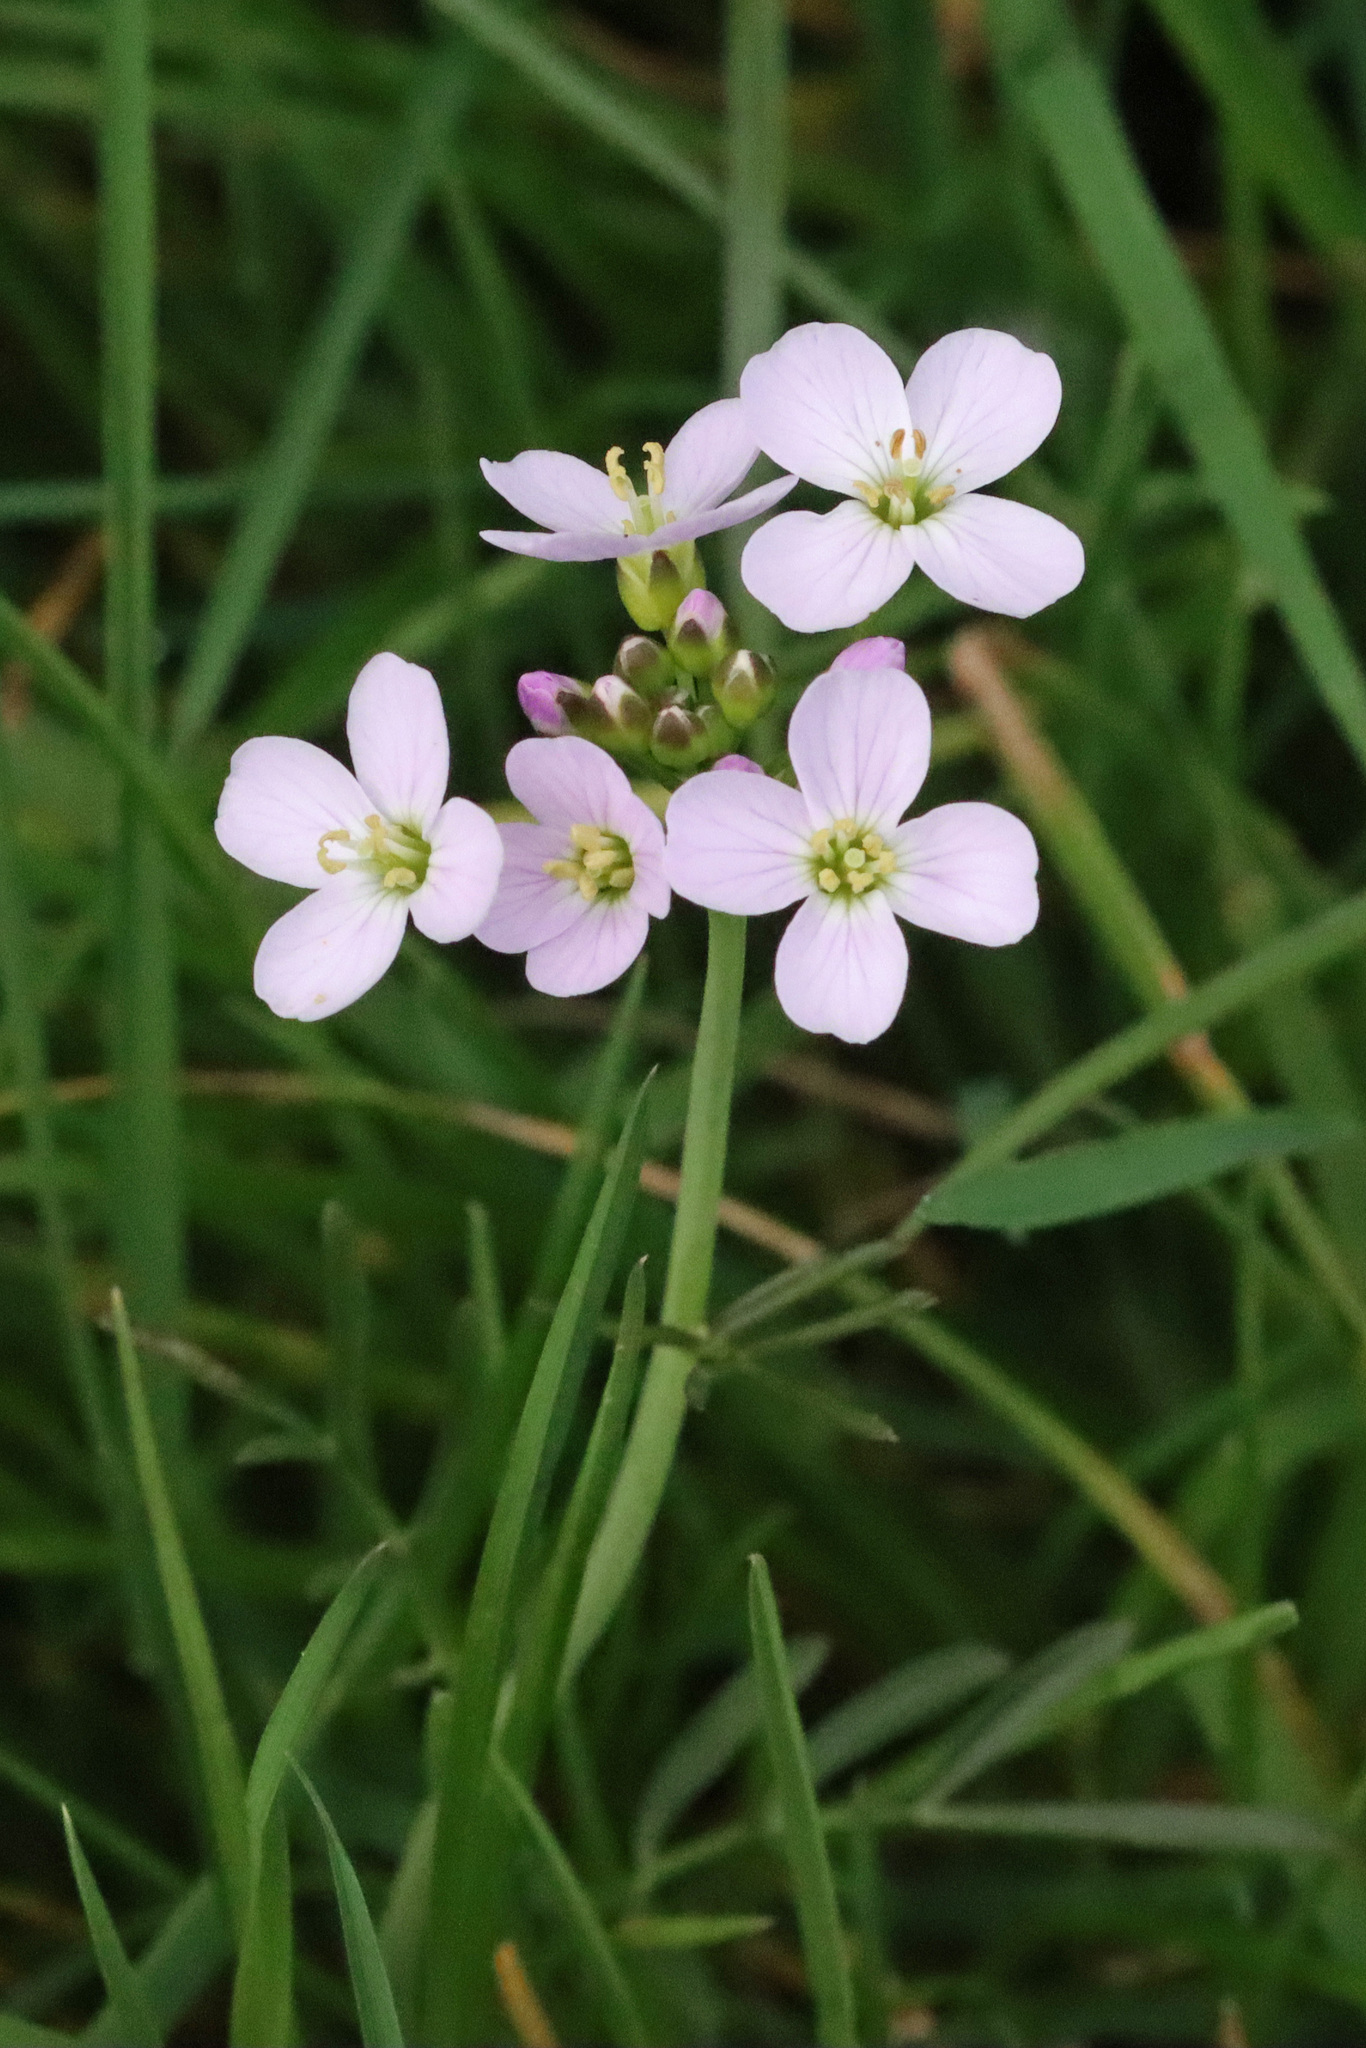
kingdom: Plantae
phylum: Tracheophyta
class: Magnoliopsida
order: Brassicales
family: Brassicaceae
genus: Cardamine
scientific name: Cardamine pratensis
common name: Cuckoo flower
